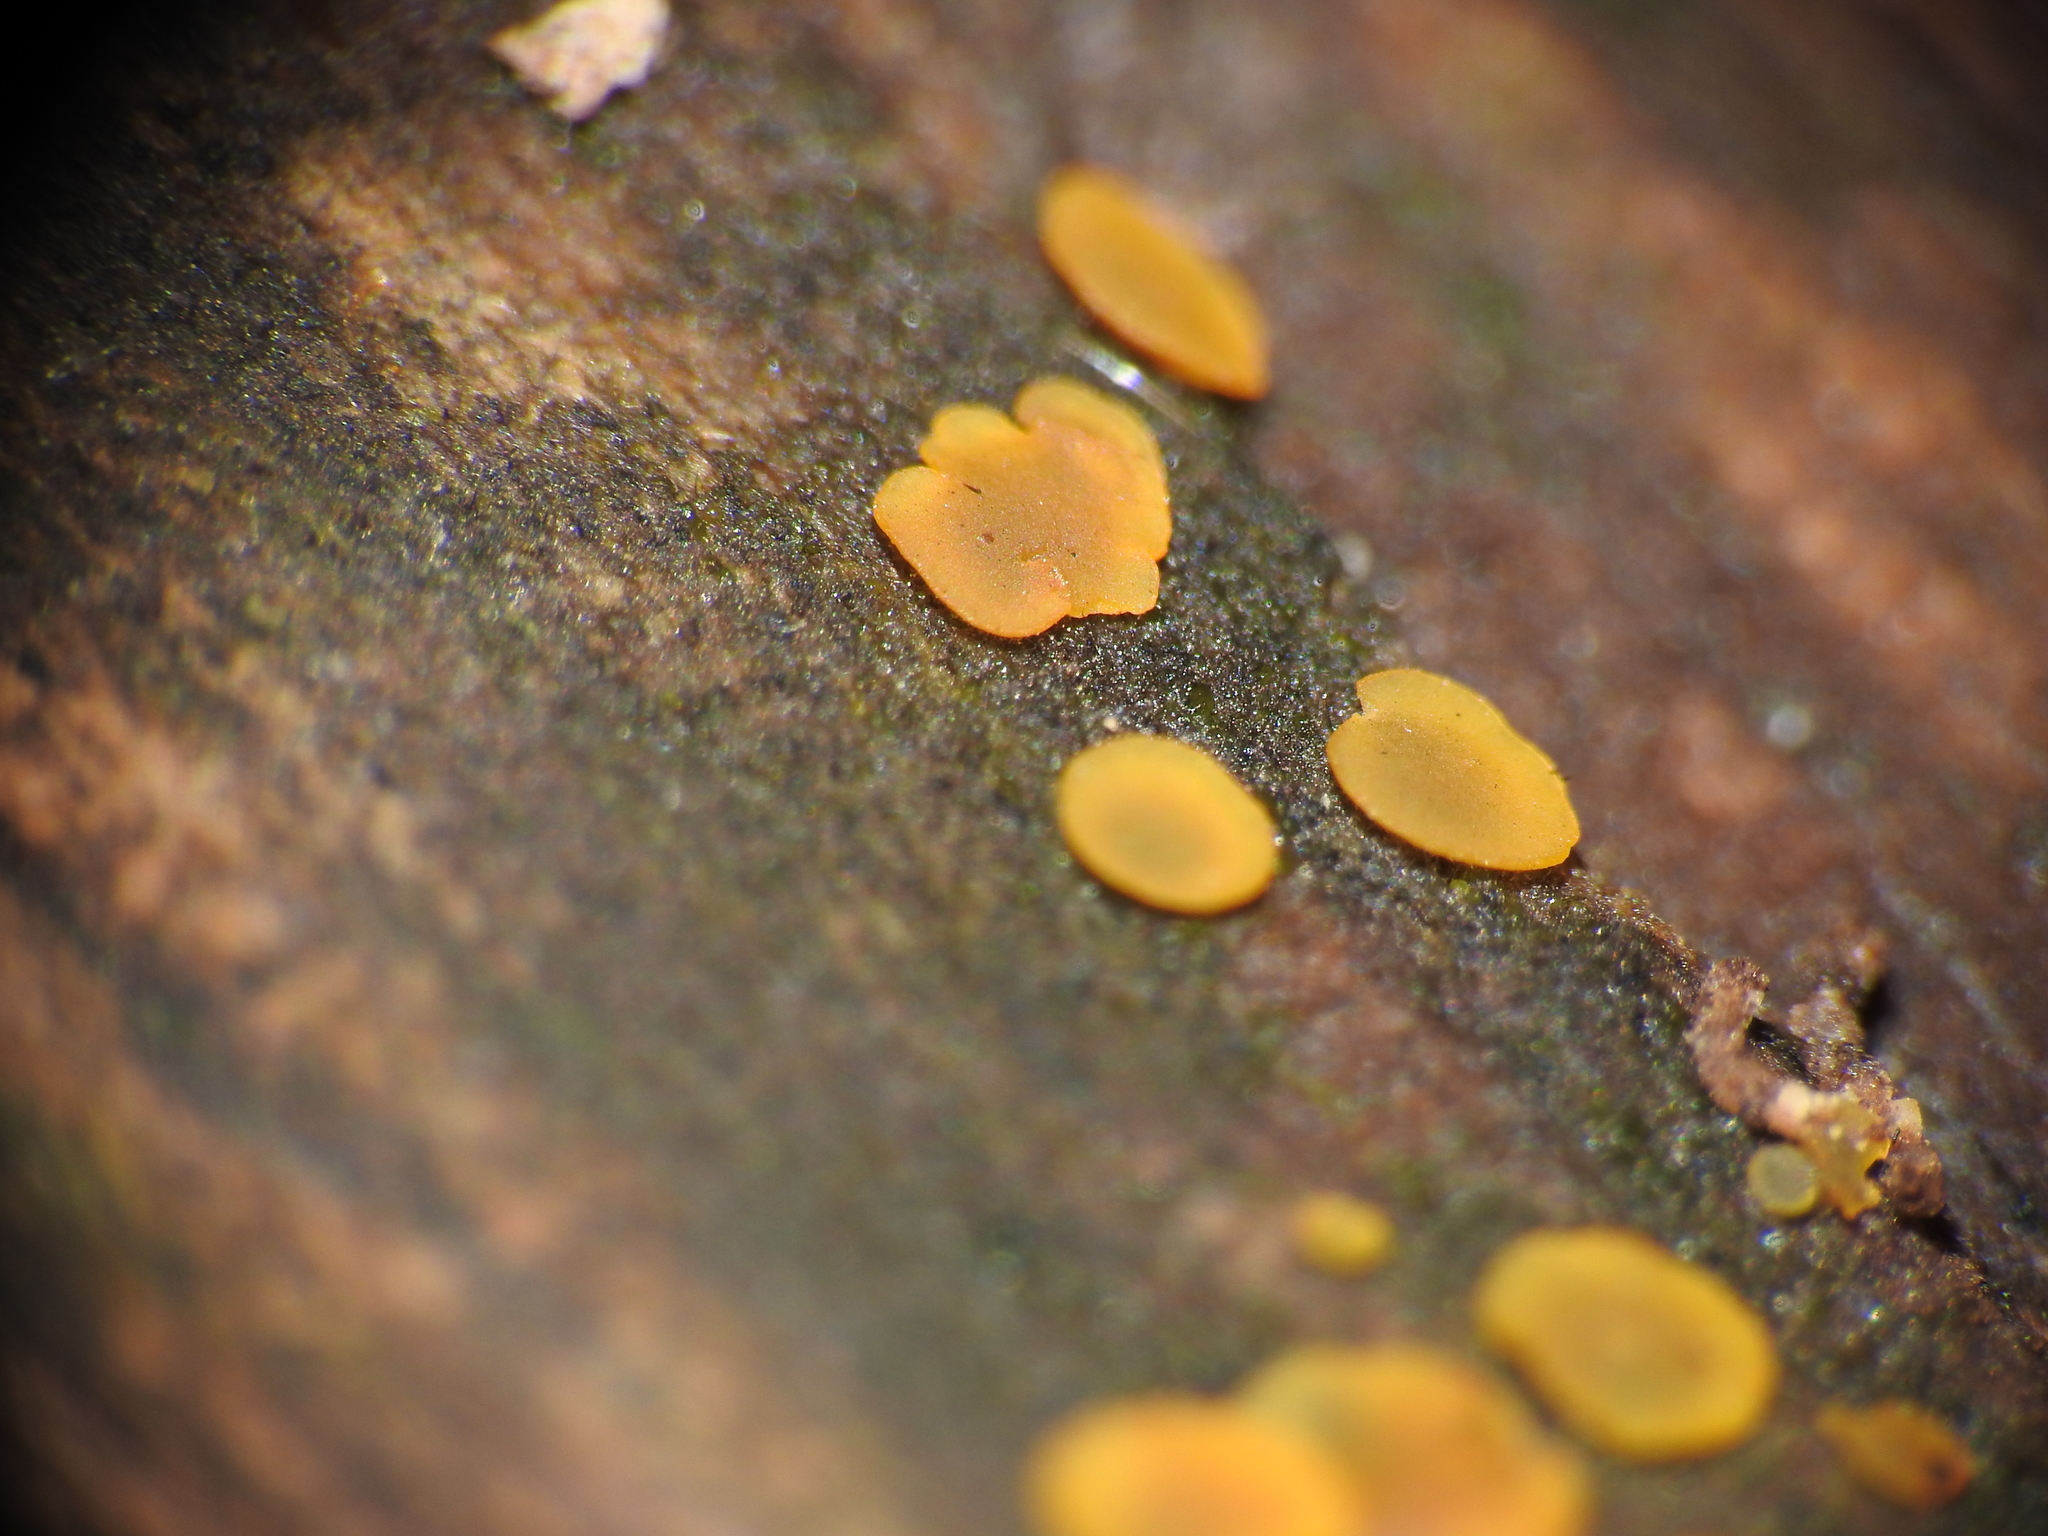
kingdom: Fungi
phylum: Ascomycota
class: Orbiliomycetes
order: Orbiliales
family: Orbiliaceae
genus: Orbilia
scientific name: Orbilia
